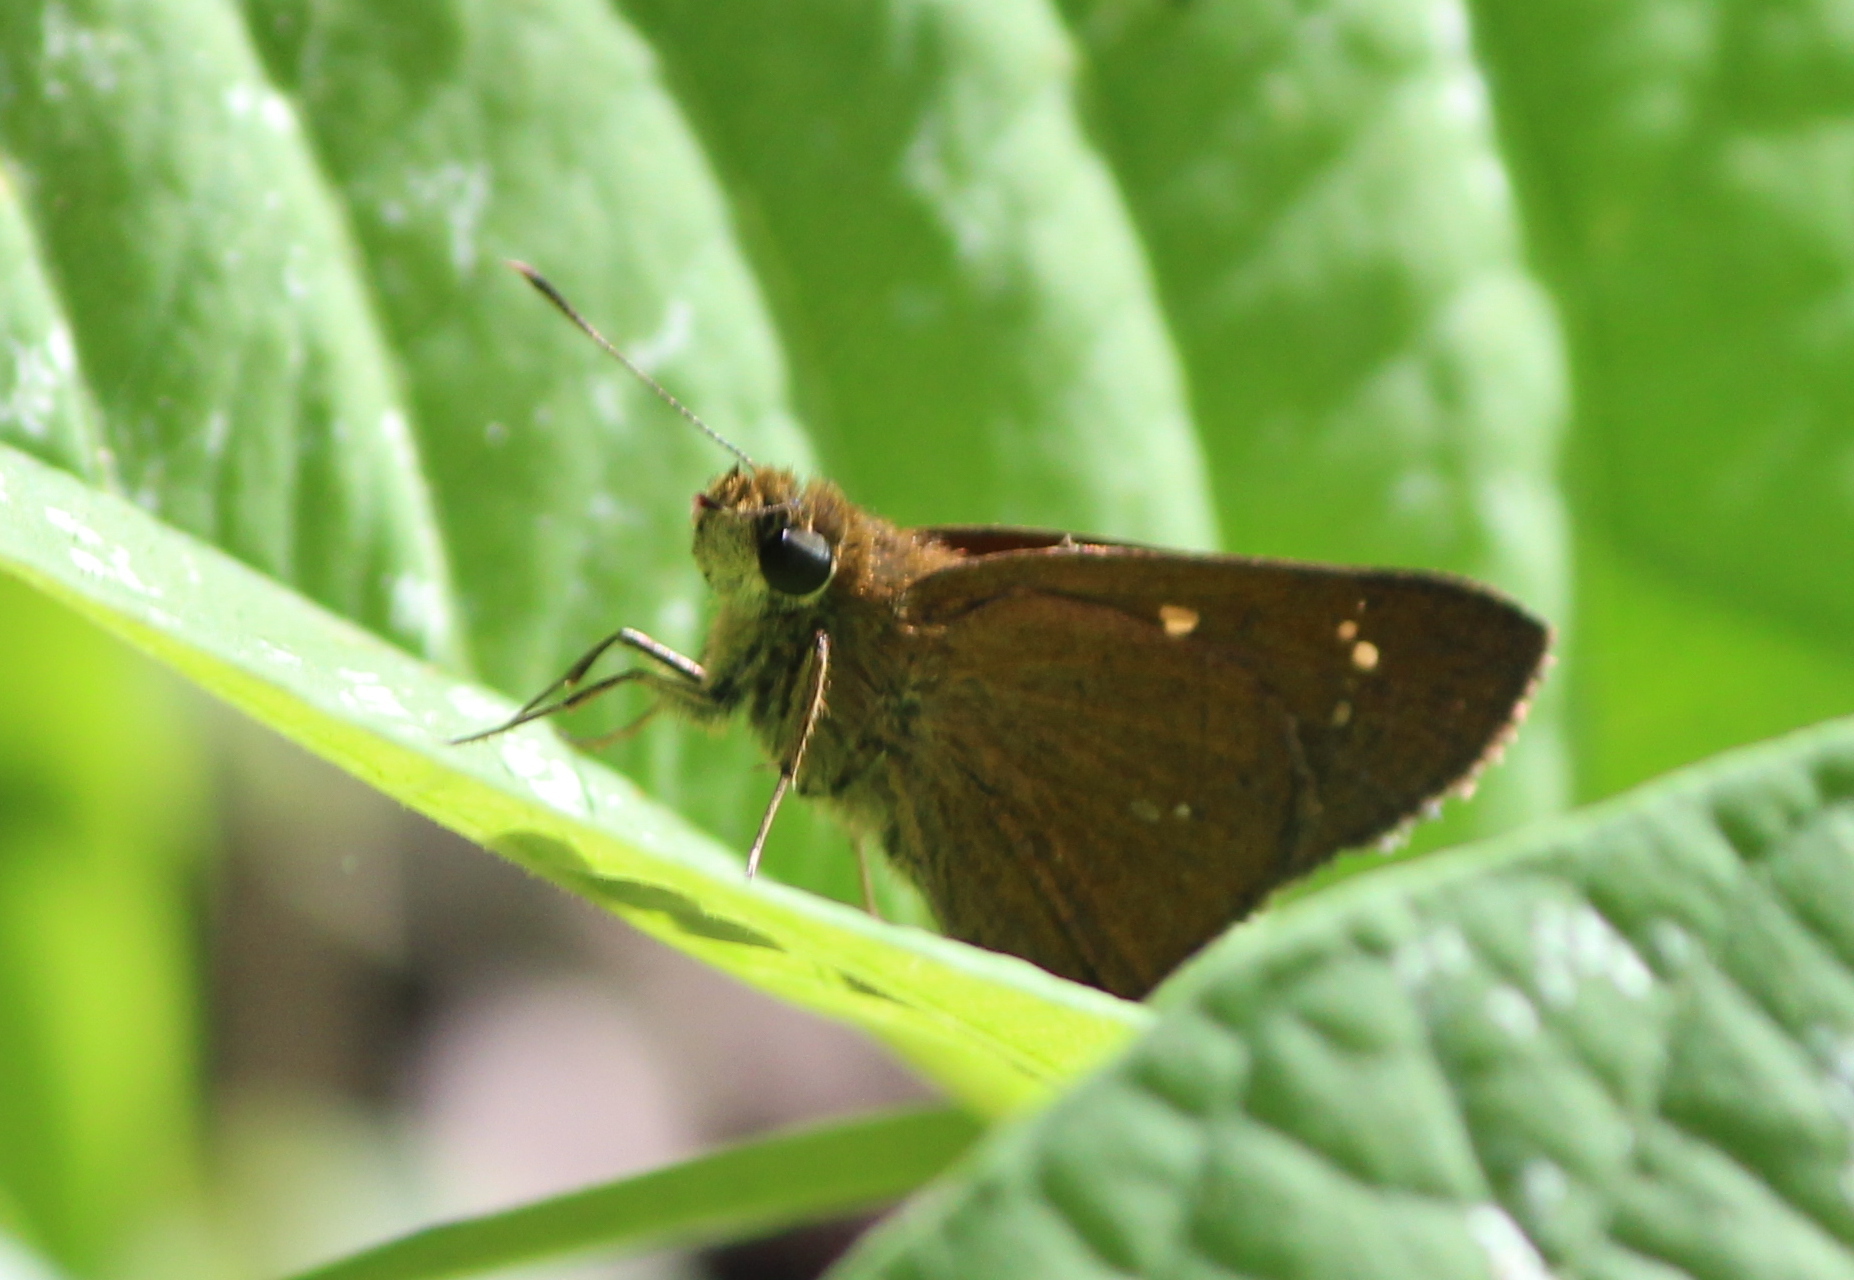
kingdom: Animalia
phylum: Arthropoda
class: Insecta
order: Lepidoptera
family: Hesperiidae
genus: Polytremis
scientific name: Polytremis lubricans
